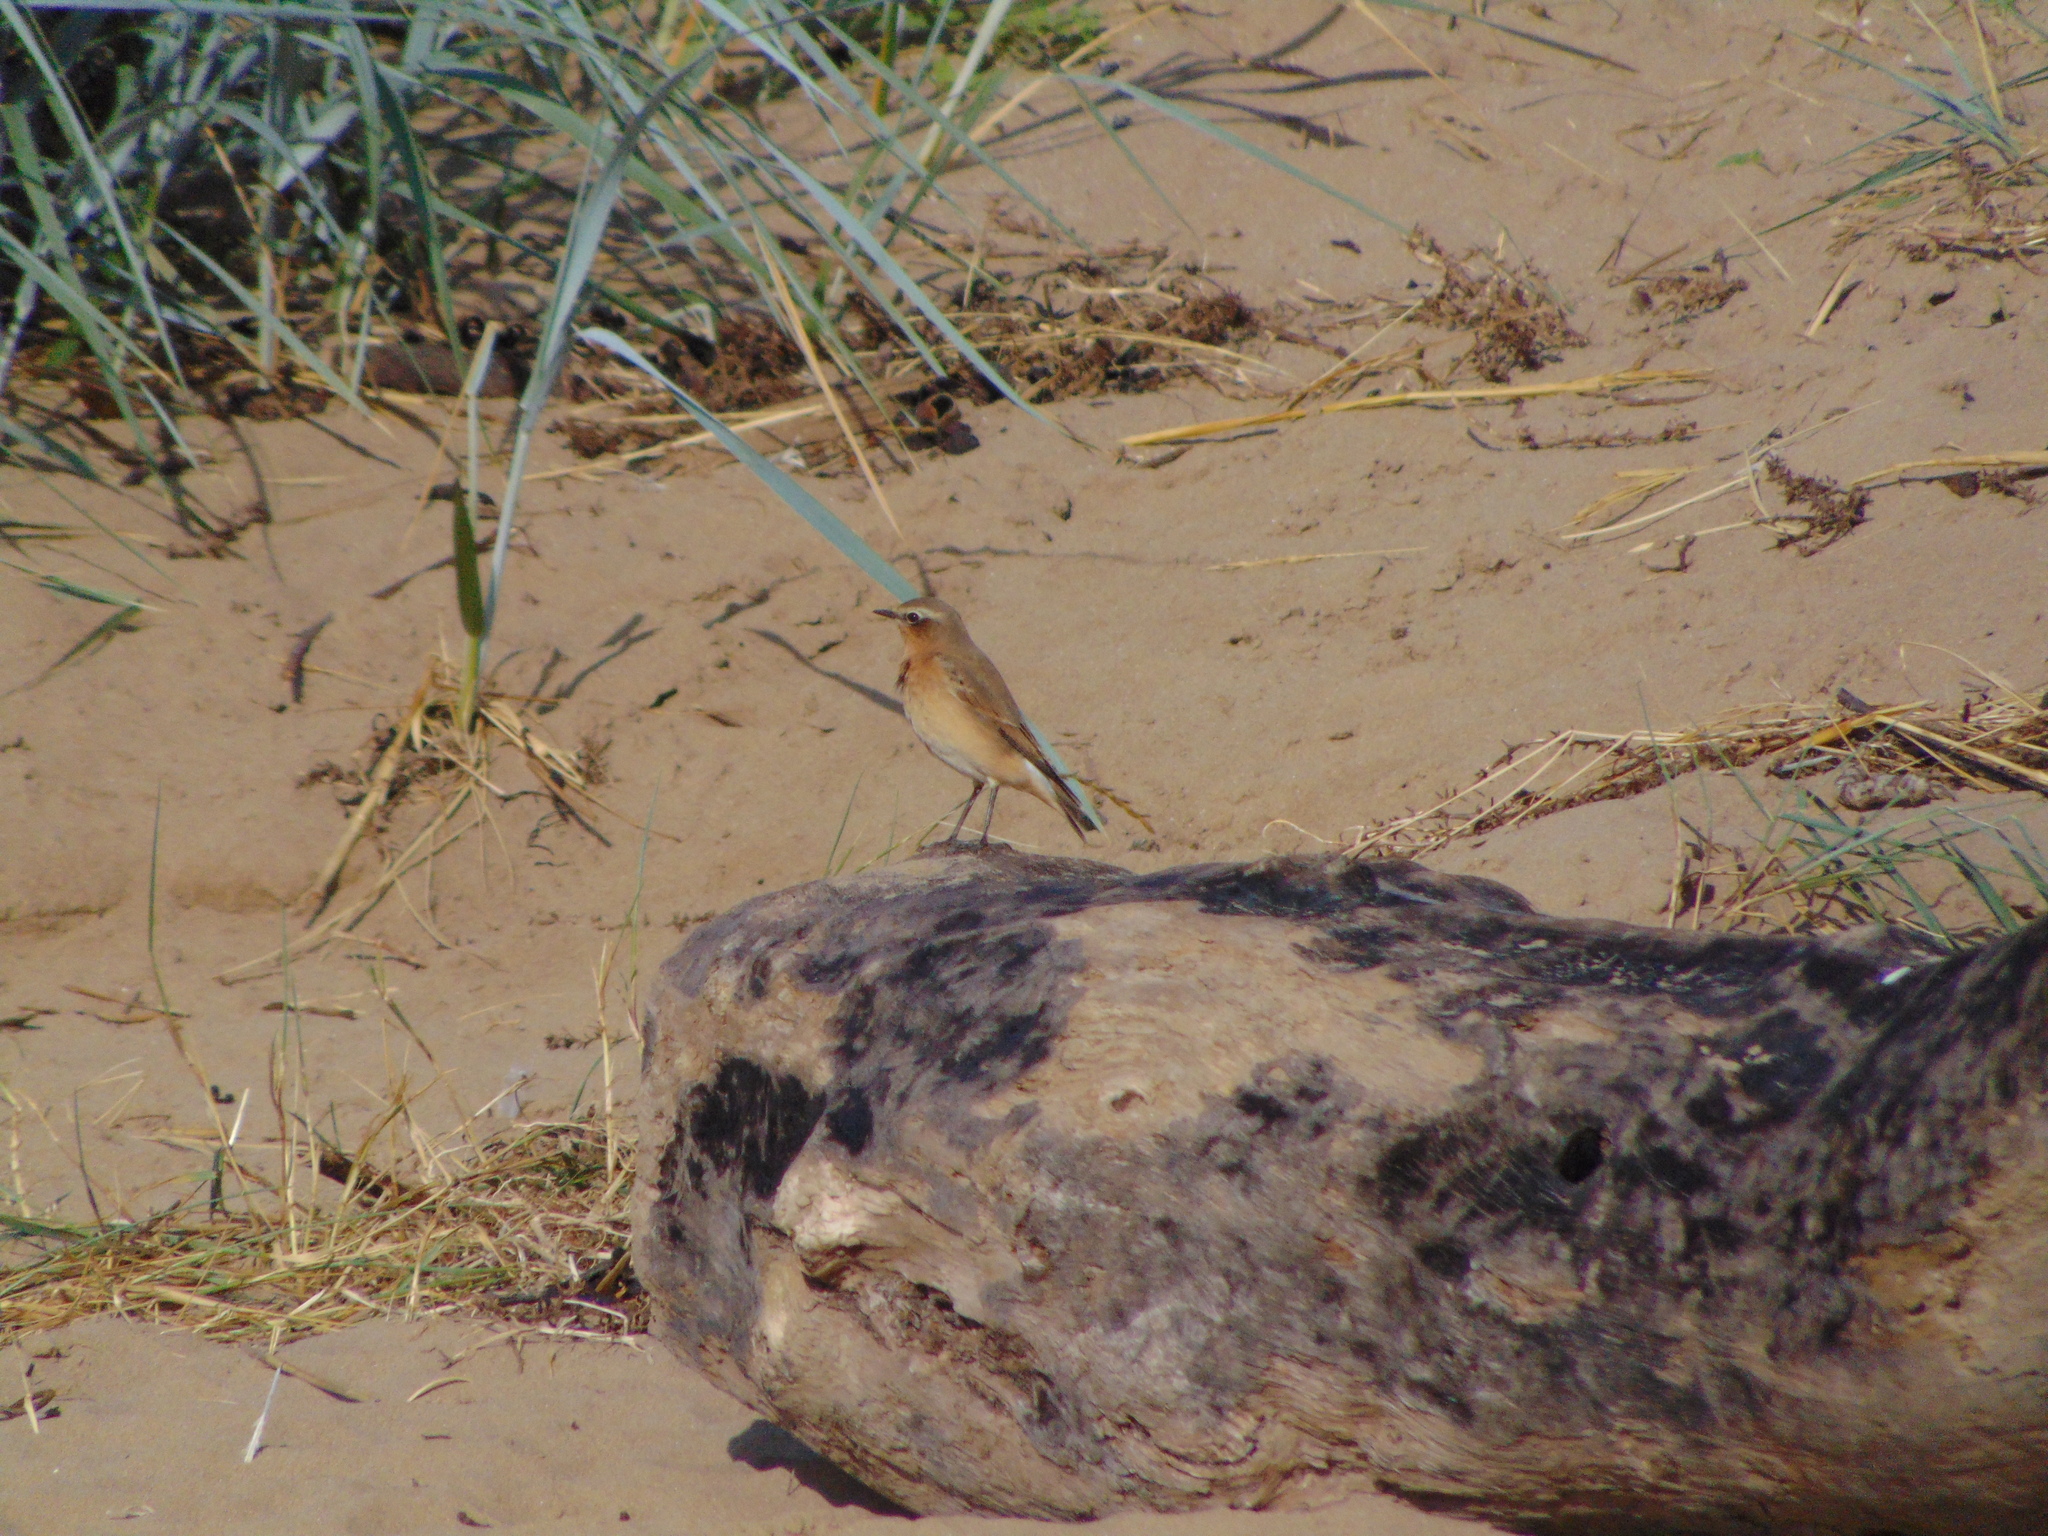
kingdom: Animalia
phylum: Chordata
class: Aves
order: Passeriformes
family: Muscicapidae
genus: Oenanthe
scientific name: Oenanthe oenanthe
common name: Northern wheatear
